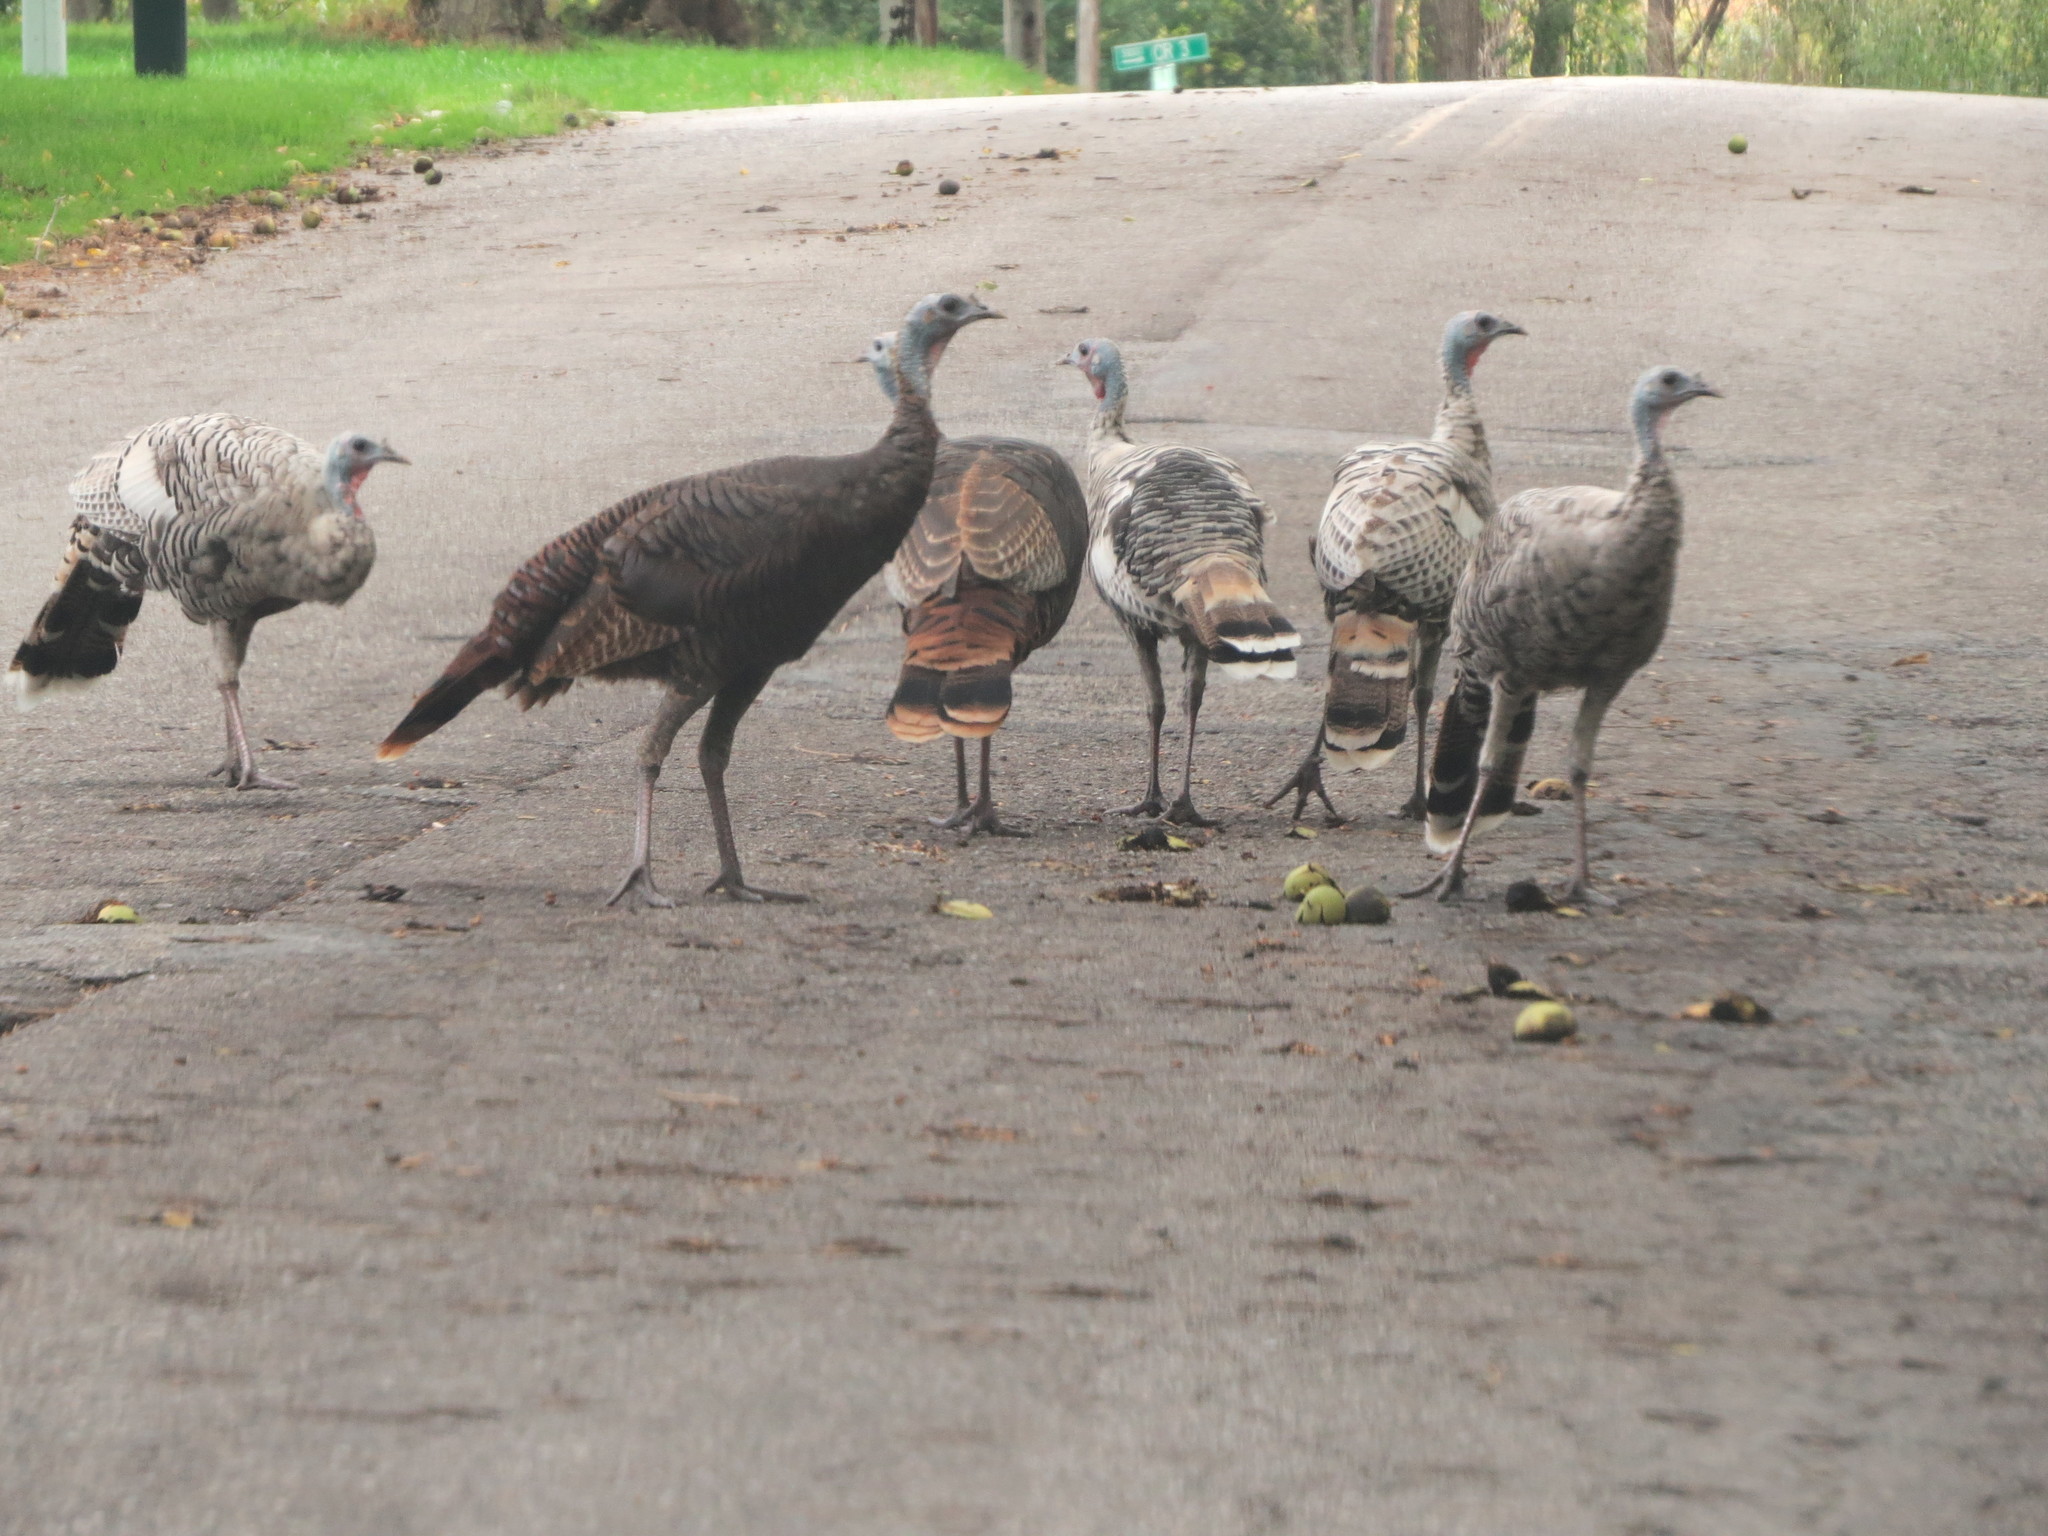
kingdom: Animalia
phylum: Chordata
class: Aves
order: Galliformes
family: Phasianidae
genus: Meleagris
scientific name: Meleagris gallopavo
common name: Wild turkey
